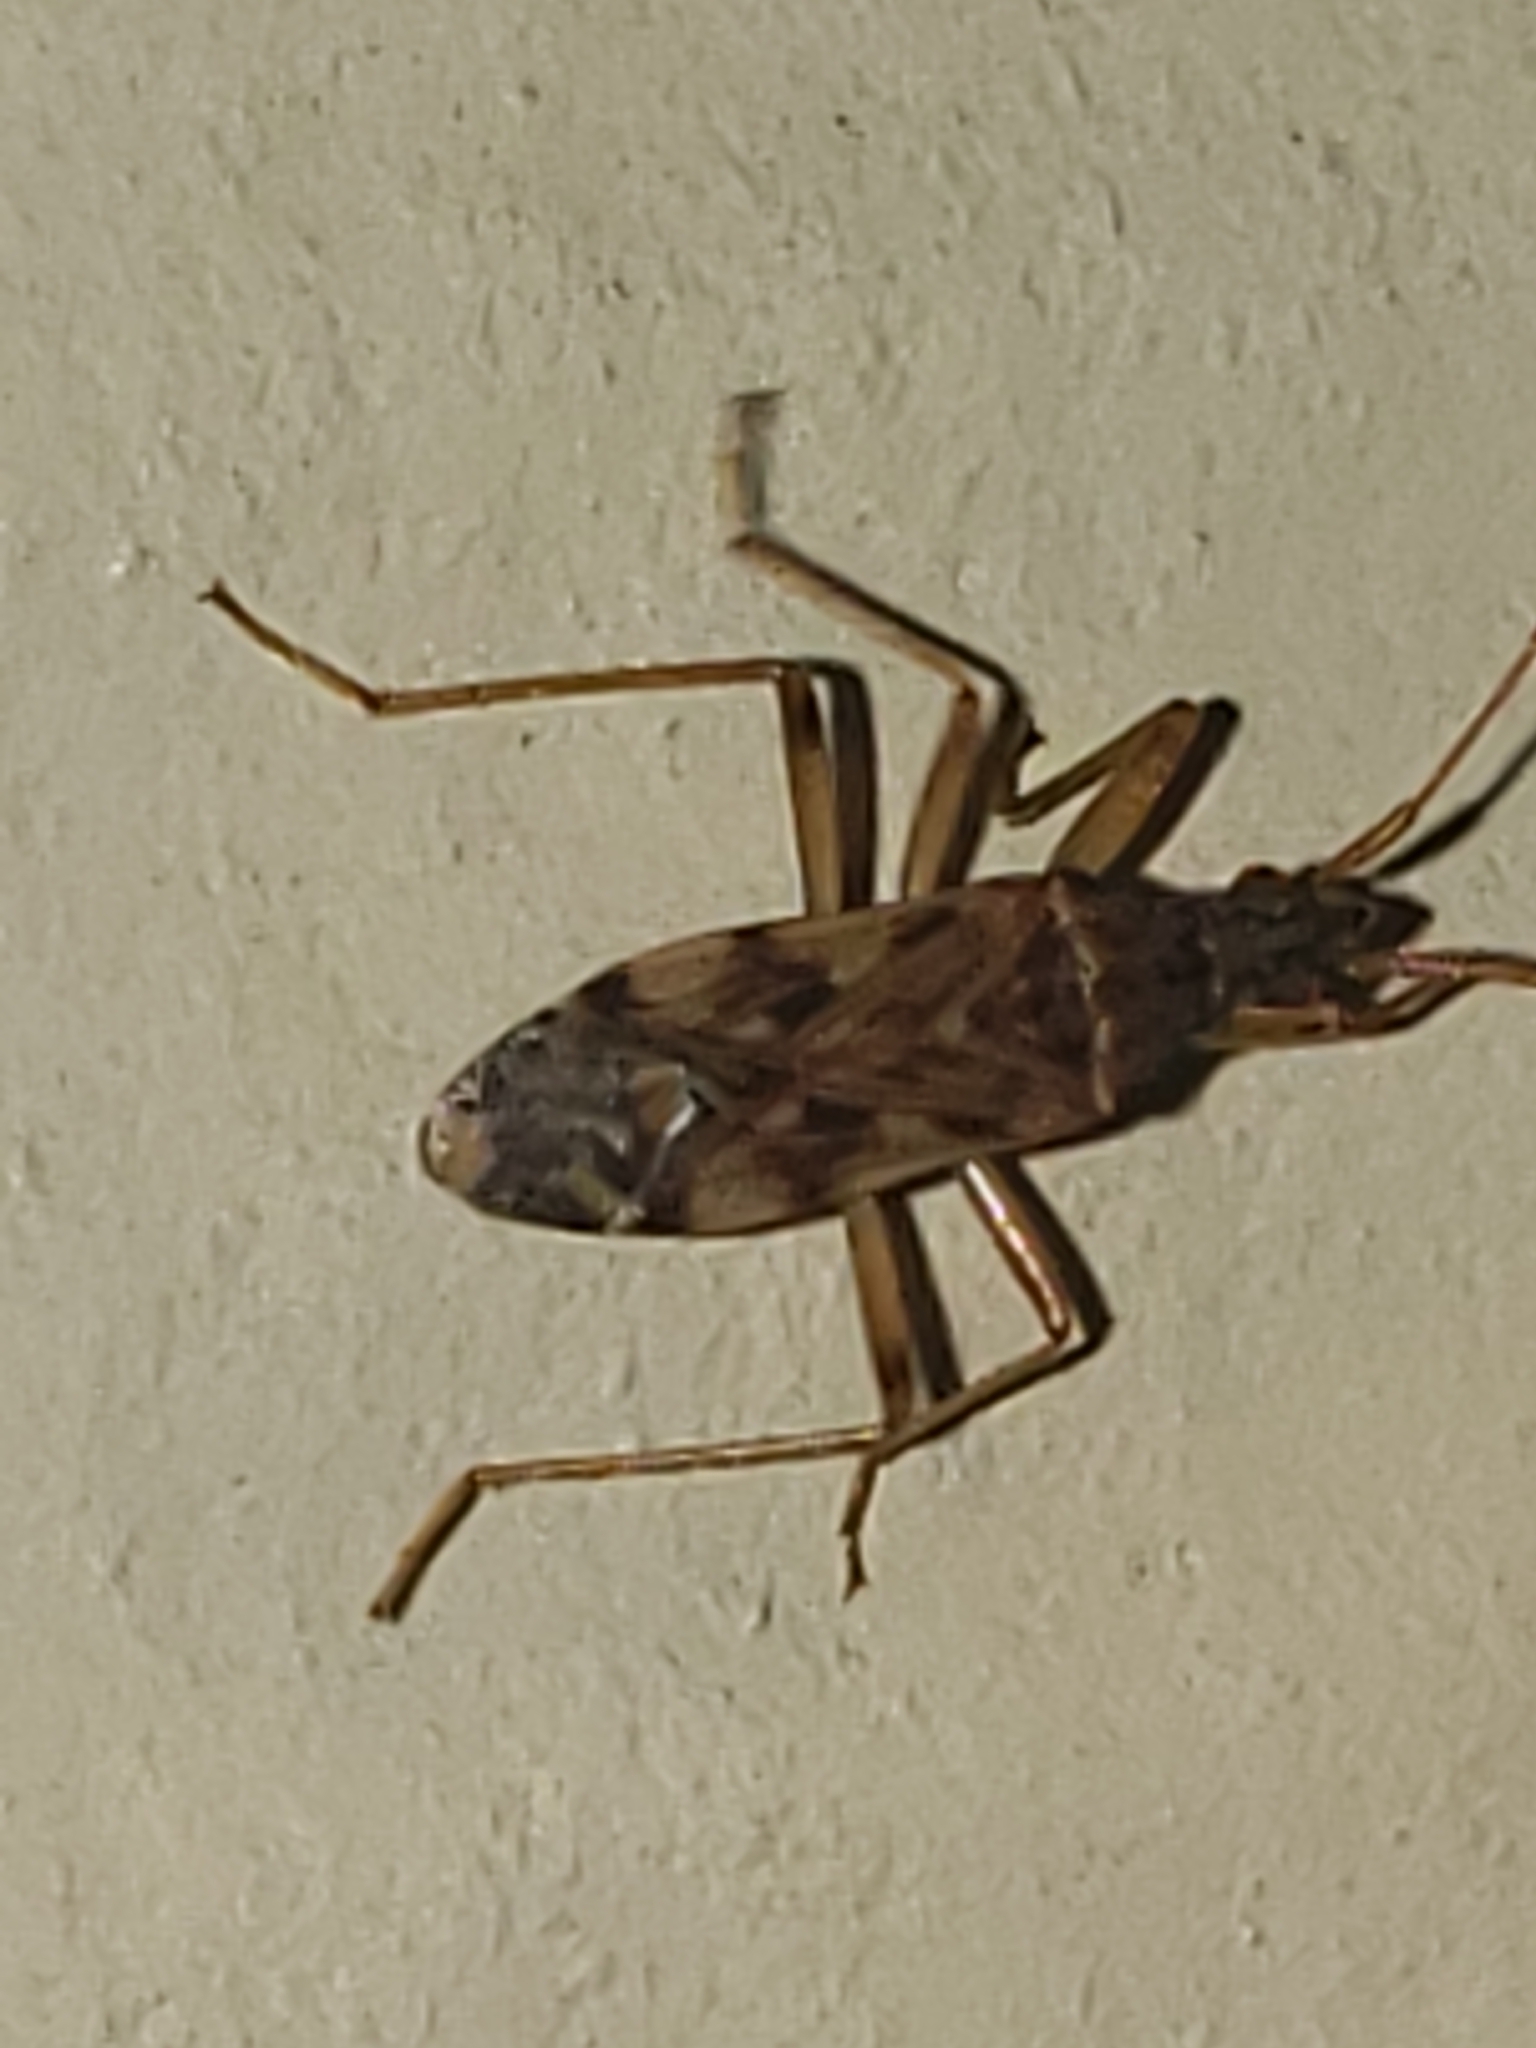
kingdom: Animalia
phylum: Arthropoda
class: Insecta
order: Hemiptera
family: Rhyparochromidae
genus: Ozophora
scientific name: Ozophora picturata
